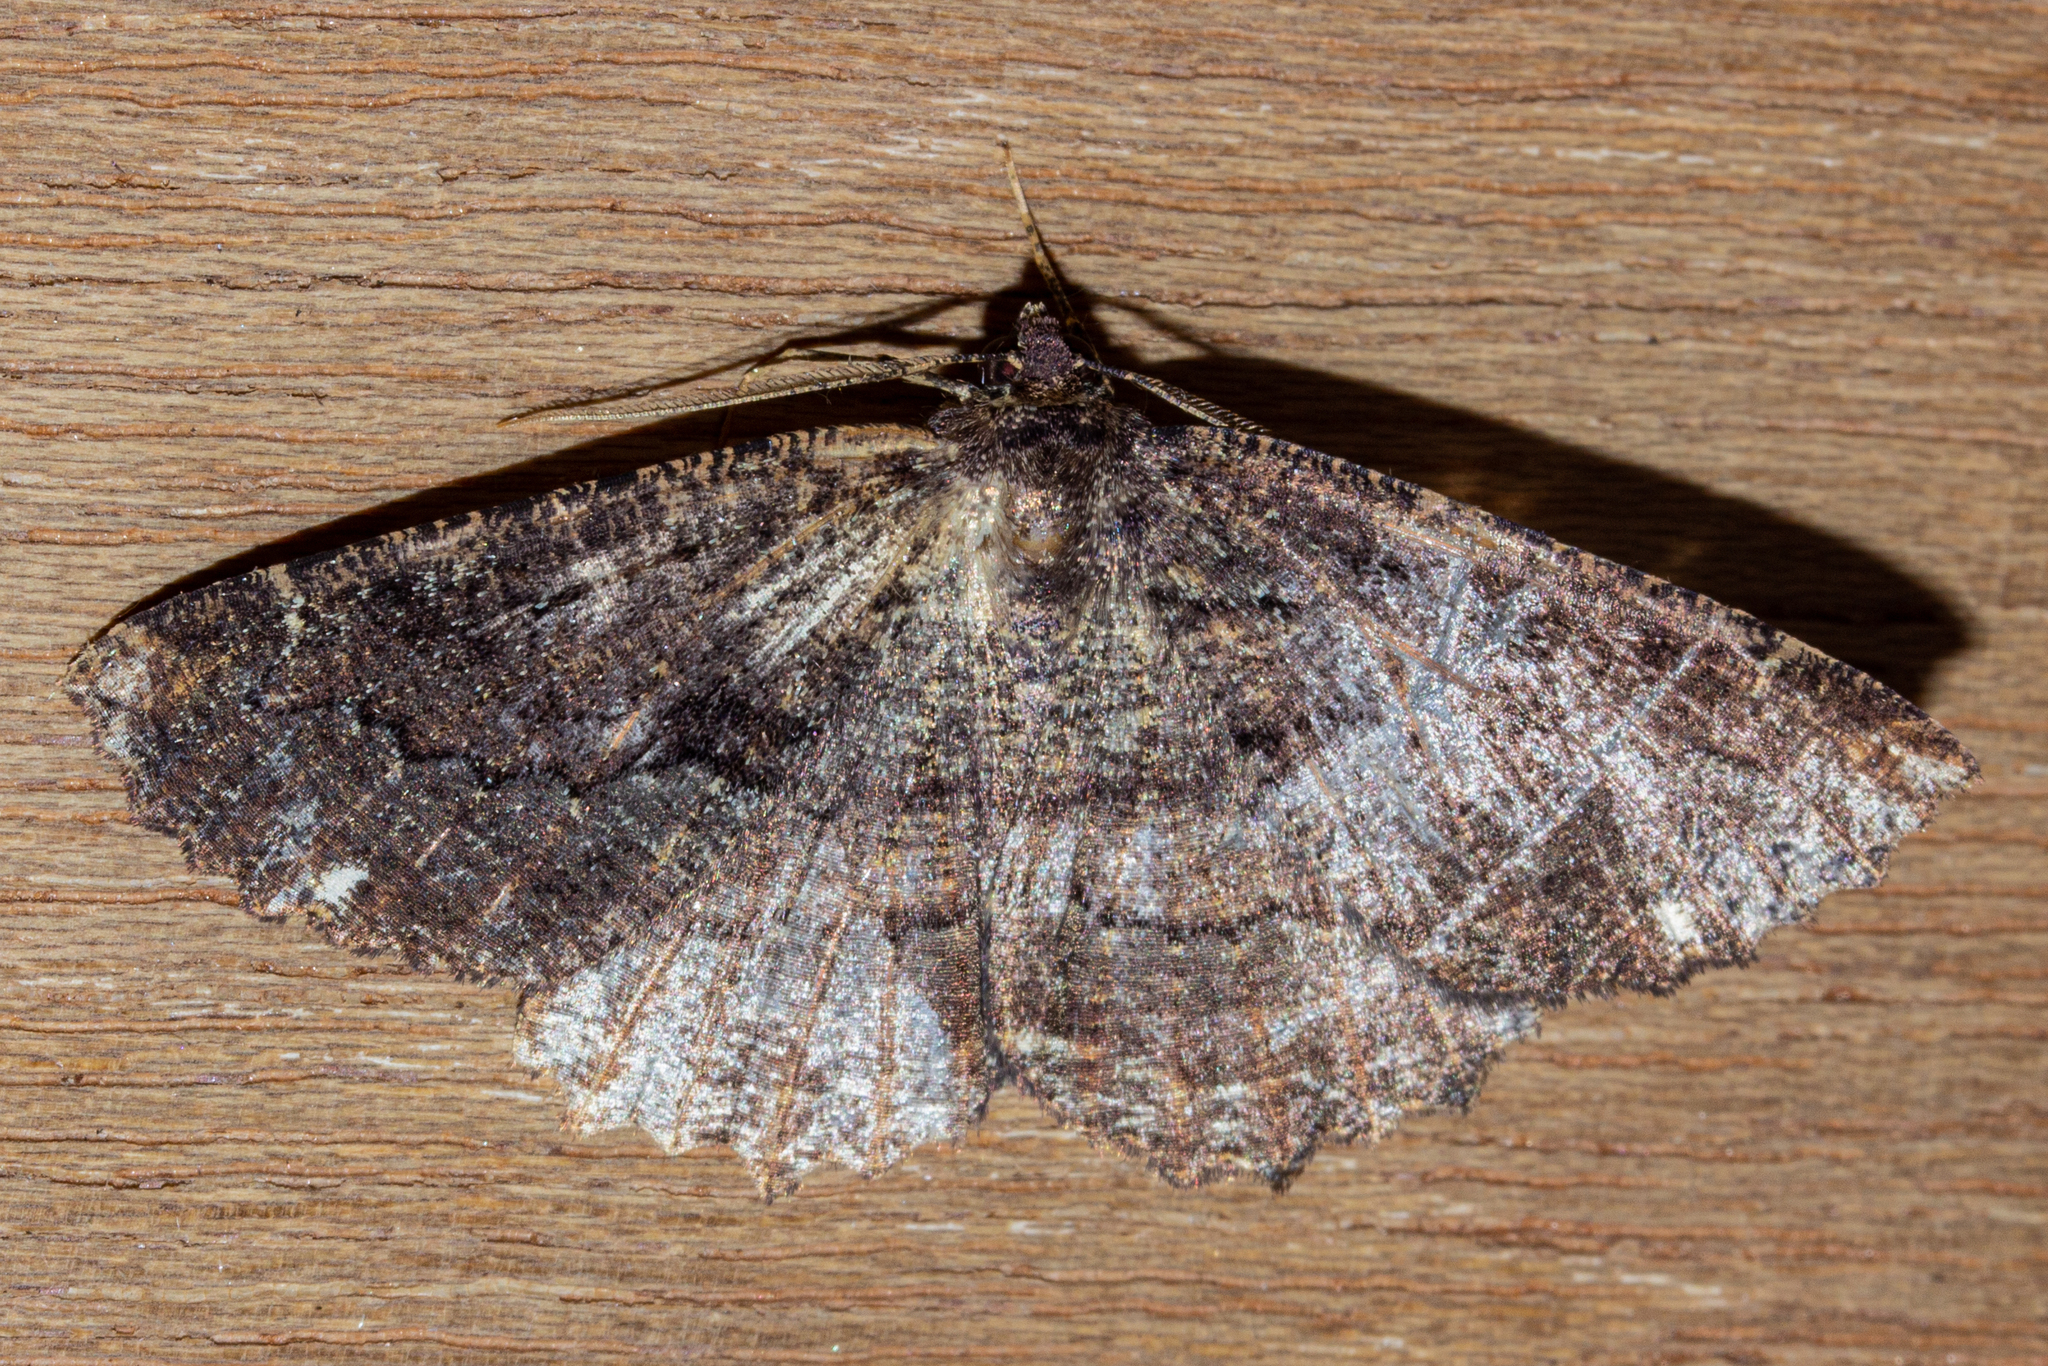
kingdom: Animalia
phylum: Arthropoda
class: Insecta
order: Lepidoptera
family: Geometridae
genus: Gellonia
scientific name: Gellonia dejectaria
